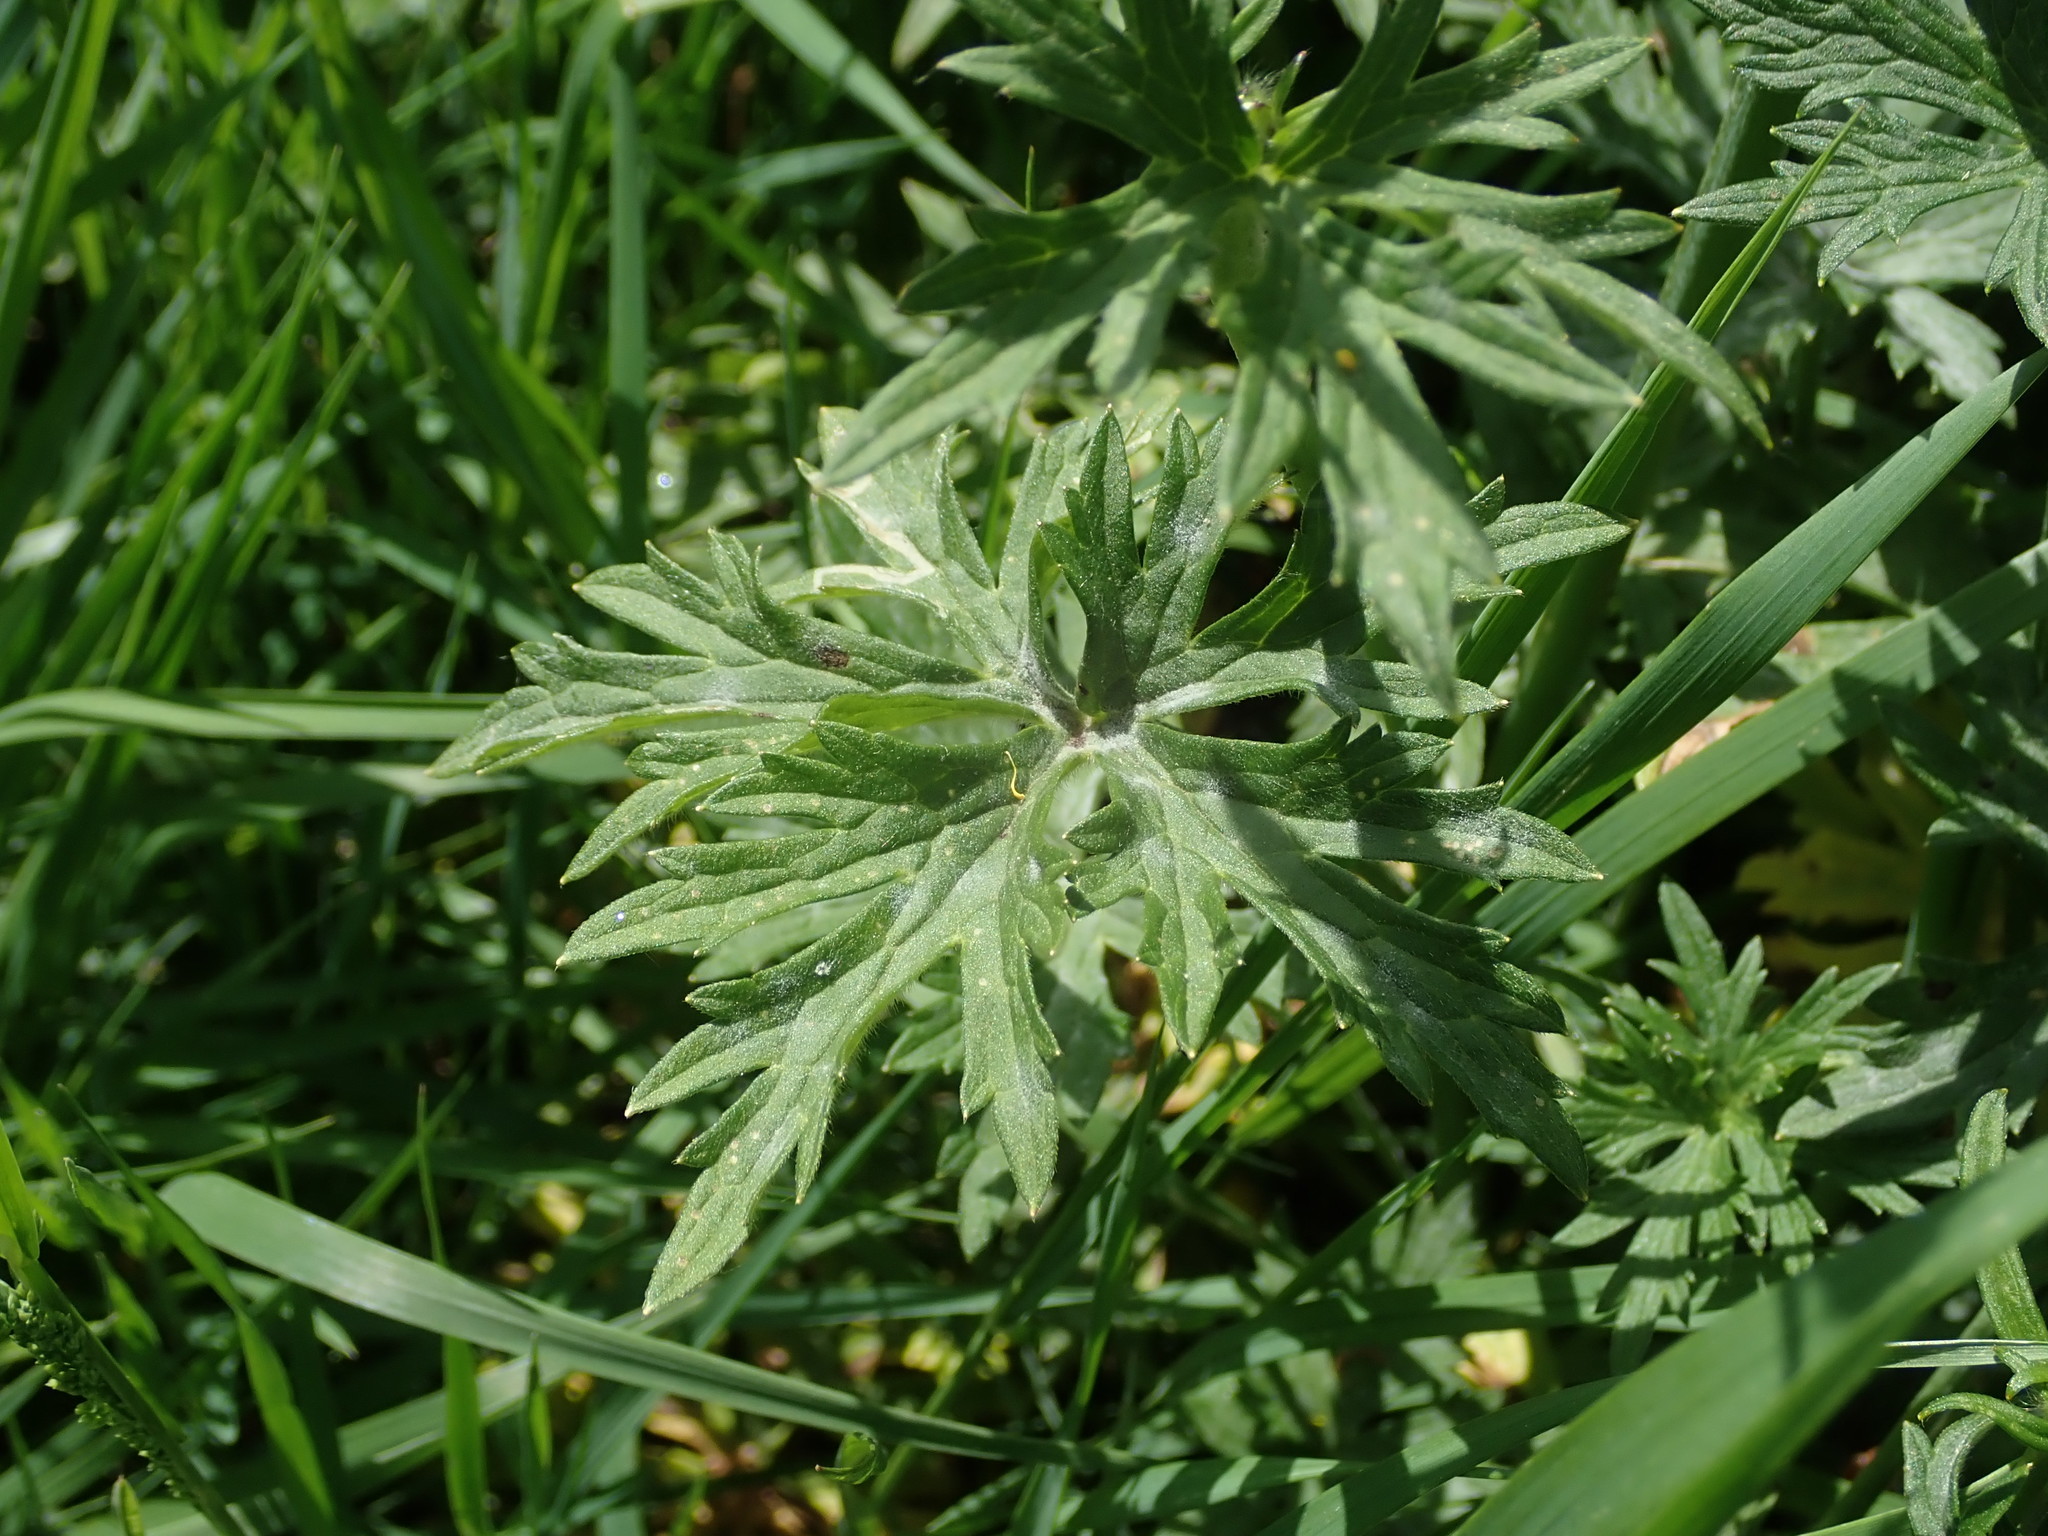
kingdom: Plantae
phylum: Tracheophyta
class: Magnoliopsida
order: Ranunculales
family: Ranunculaceae
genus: Ranunculus
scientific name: Ranunculus acris
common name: Meadow buttercup
